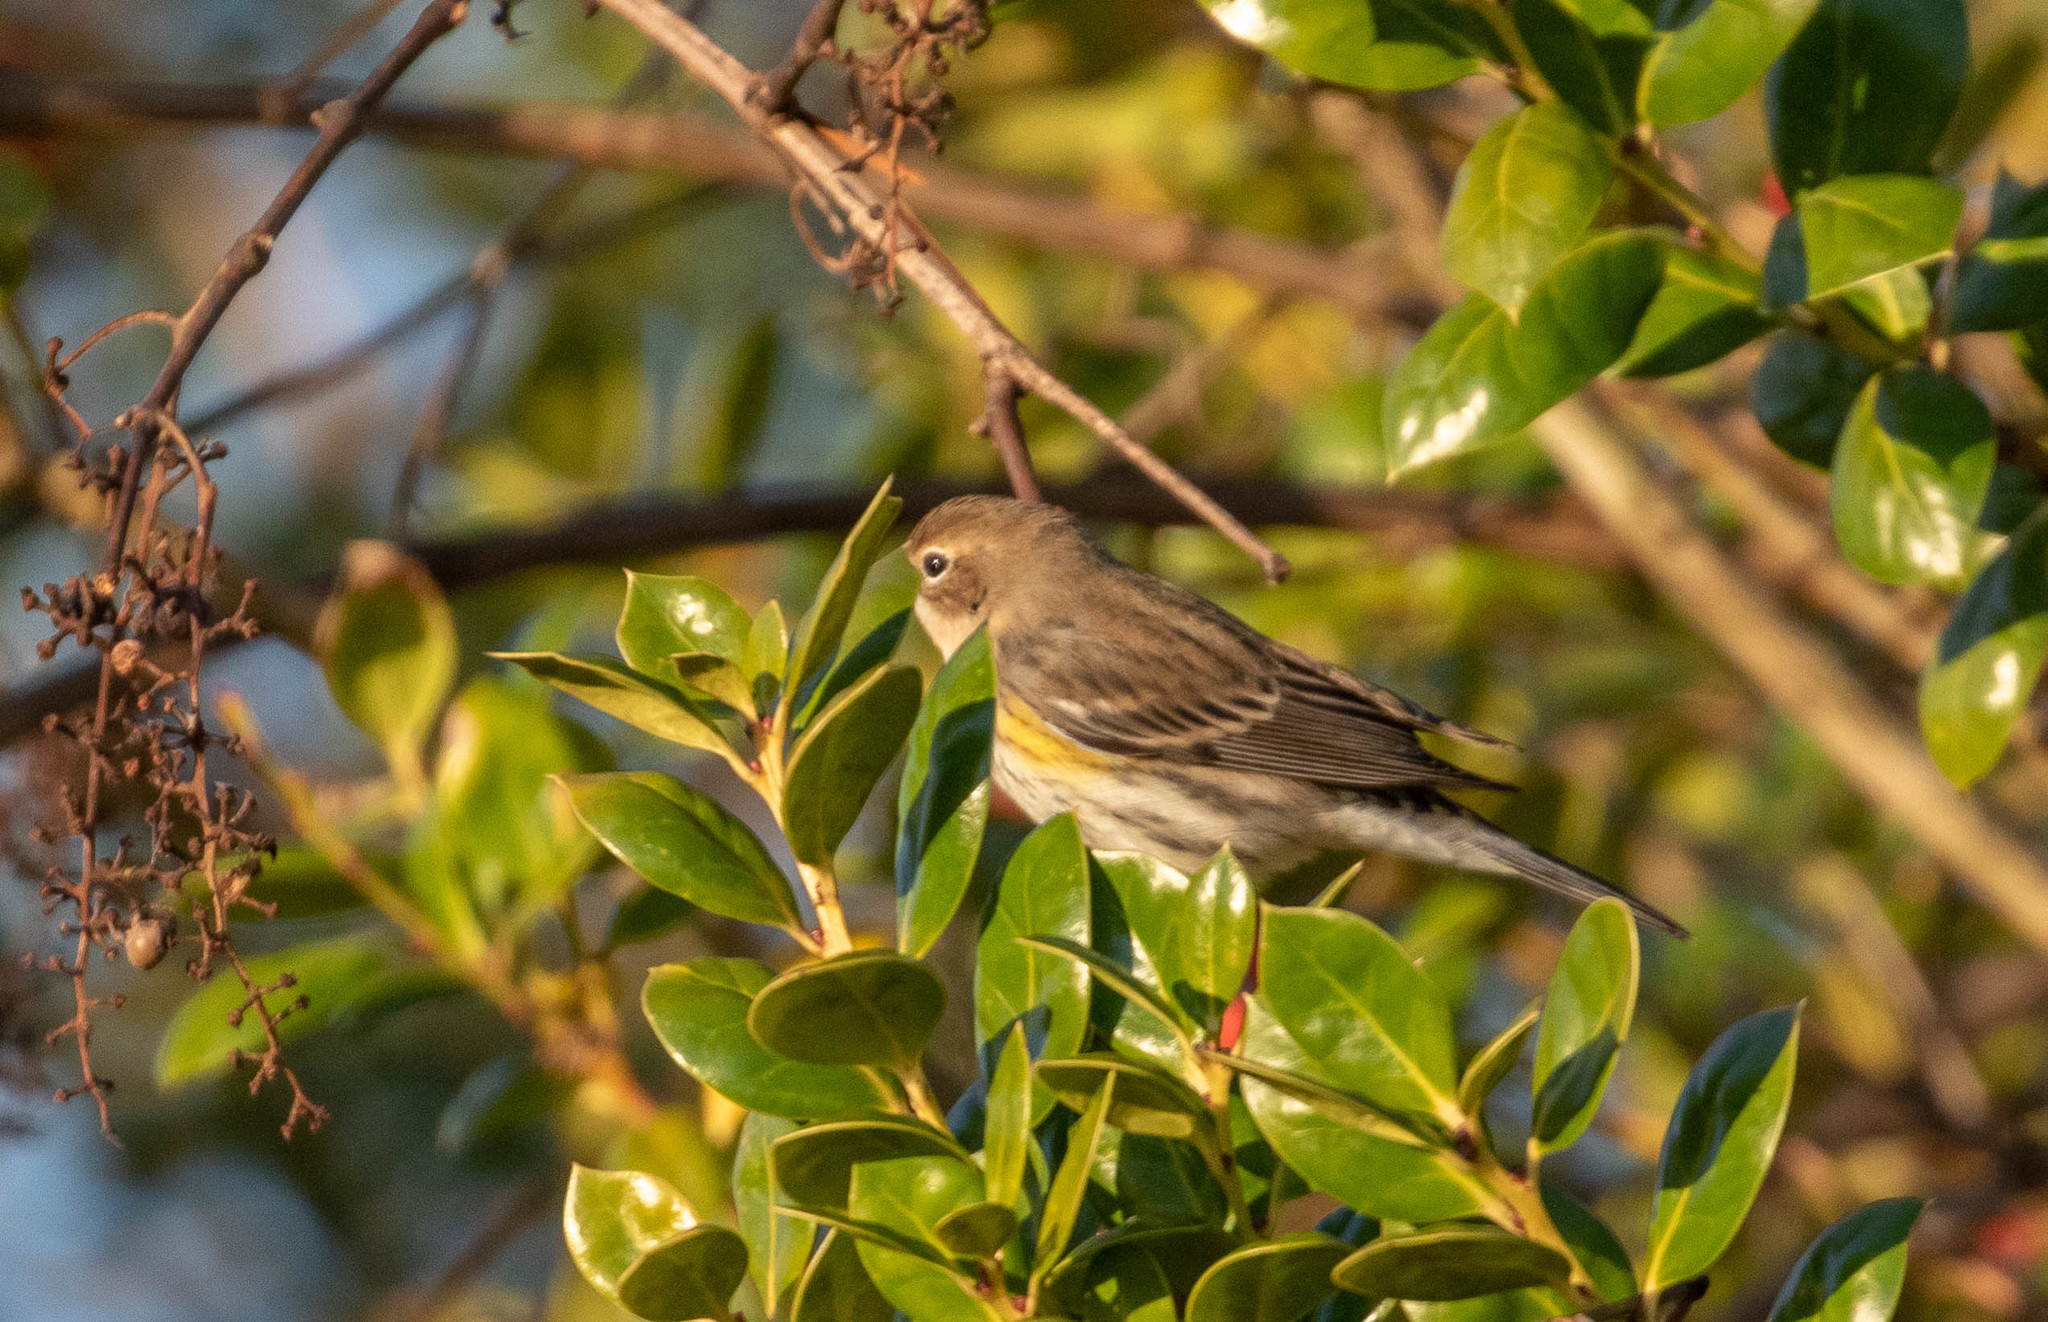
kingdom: Animalia
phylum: Chordata
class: Aves
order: Passeriformes
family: Parulidae
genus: Setophaga
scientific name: Setophaga coronata
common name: Myrtle warbler
